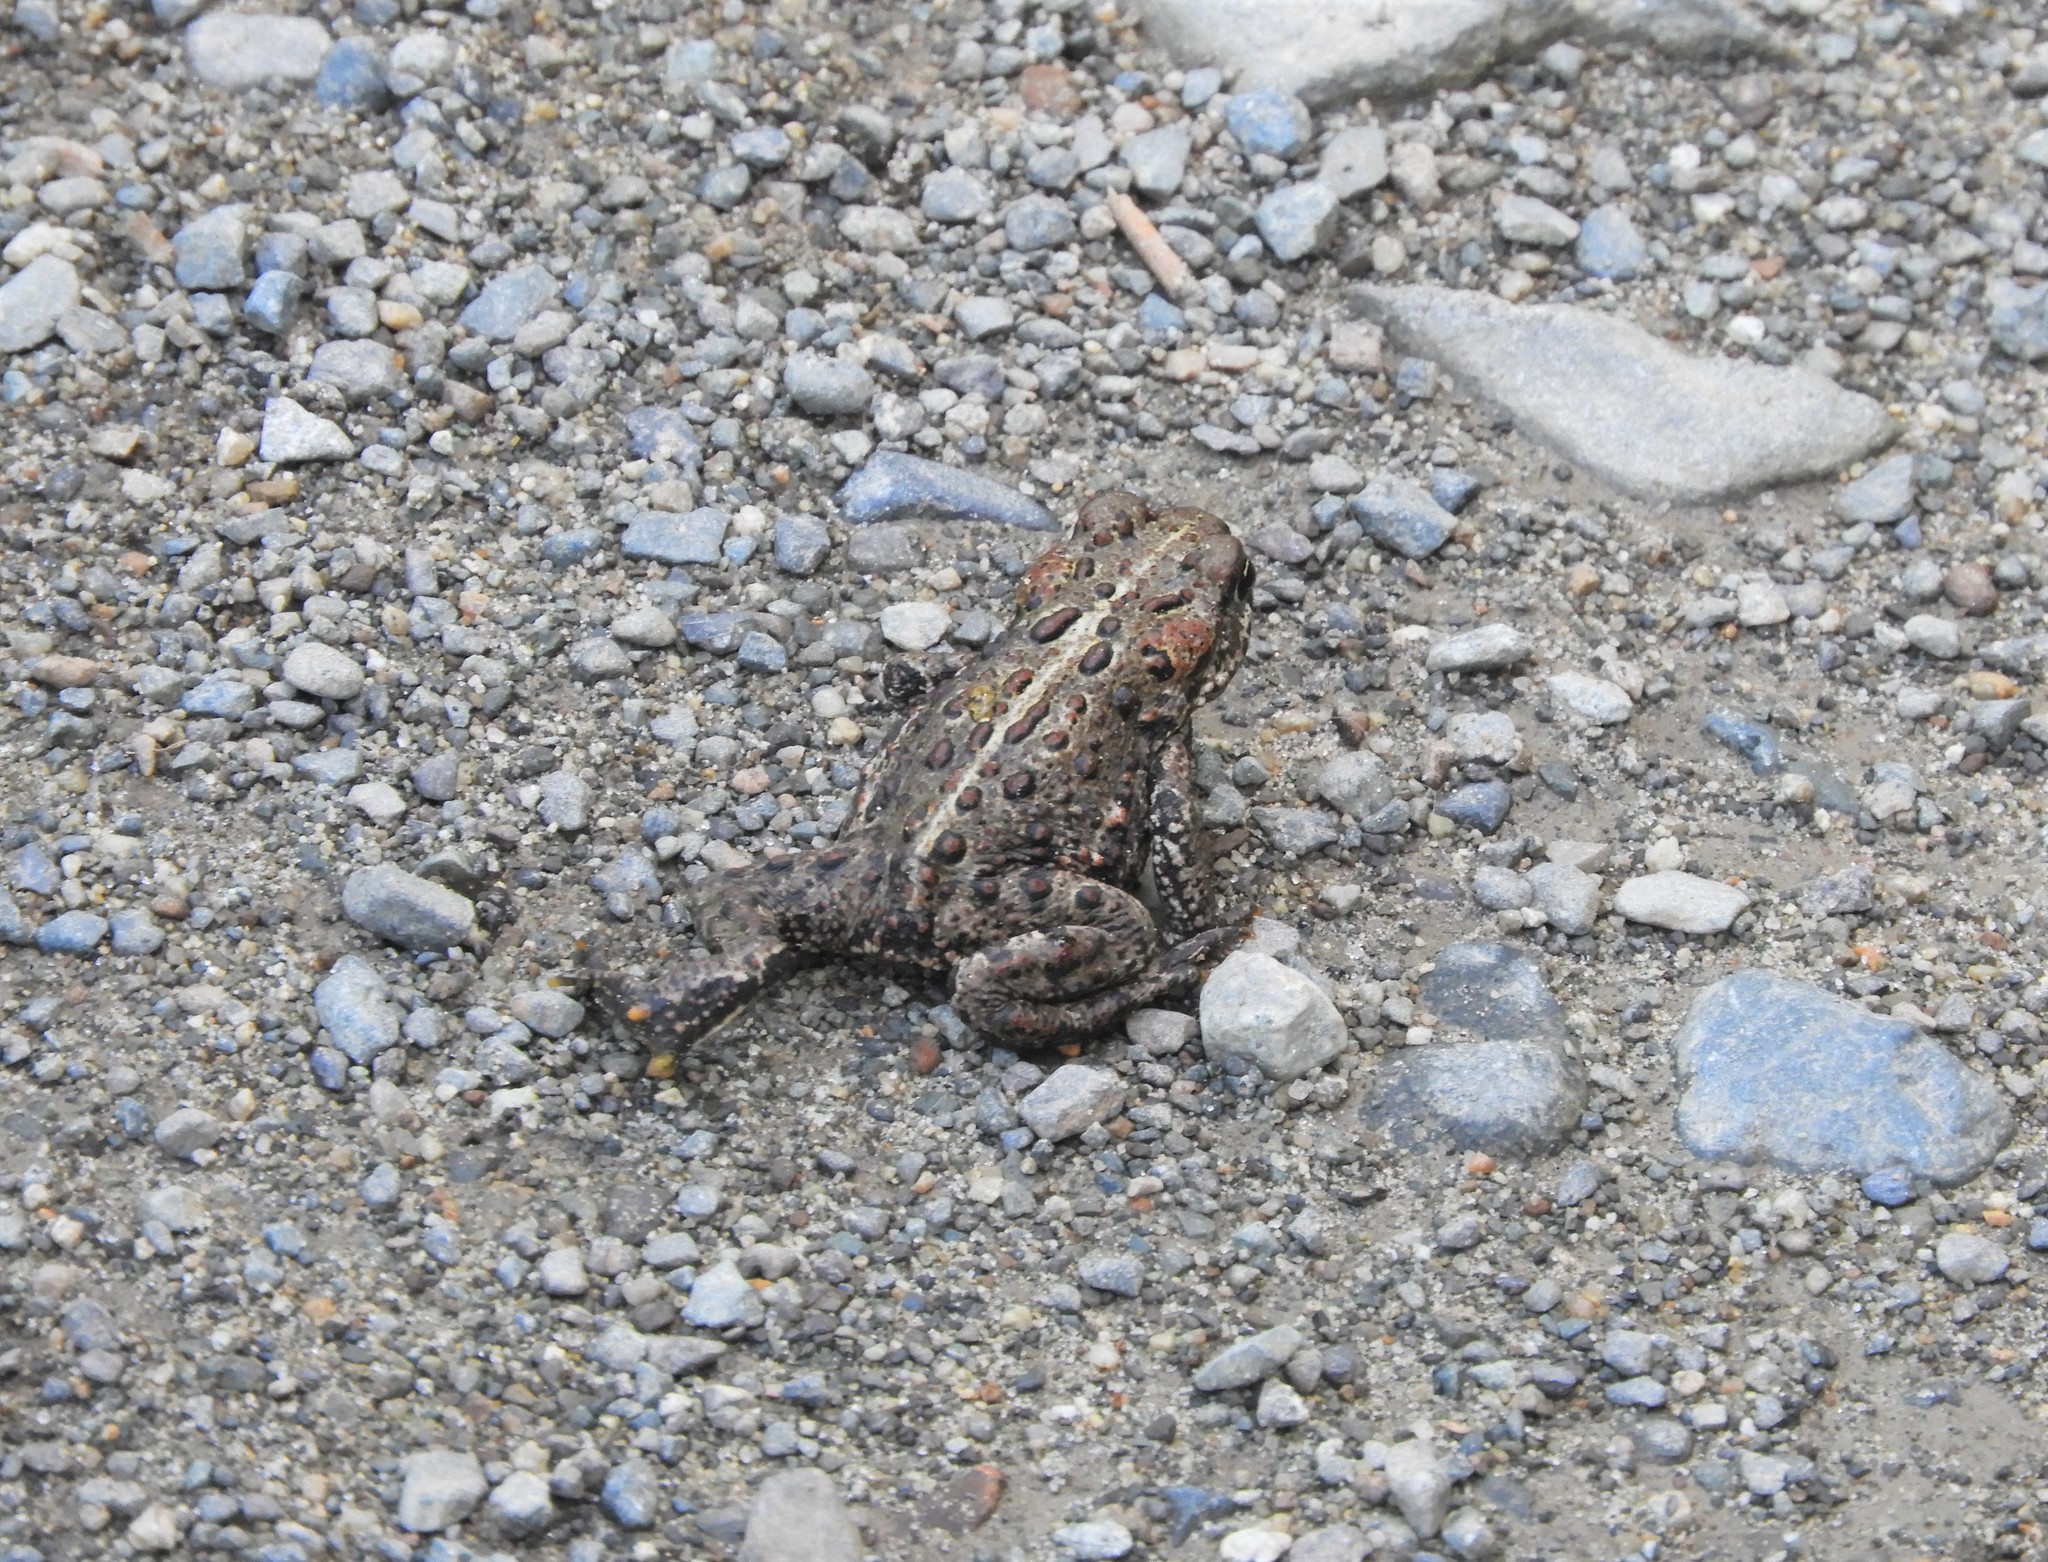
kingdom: Animalia
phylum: Chordata
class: Amphibia
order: Anura
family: Bufonidae
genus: Anaxyrus
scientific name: Anaxyrus boreas
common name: Western toad
